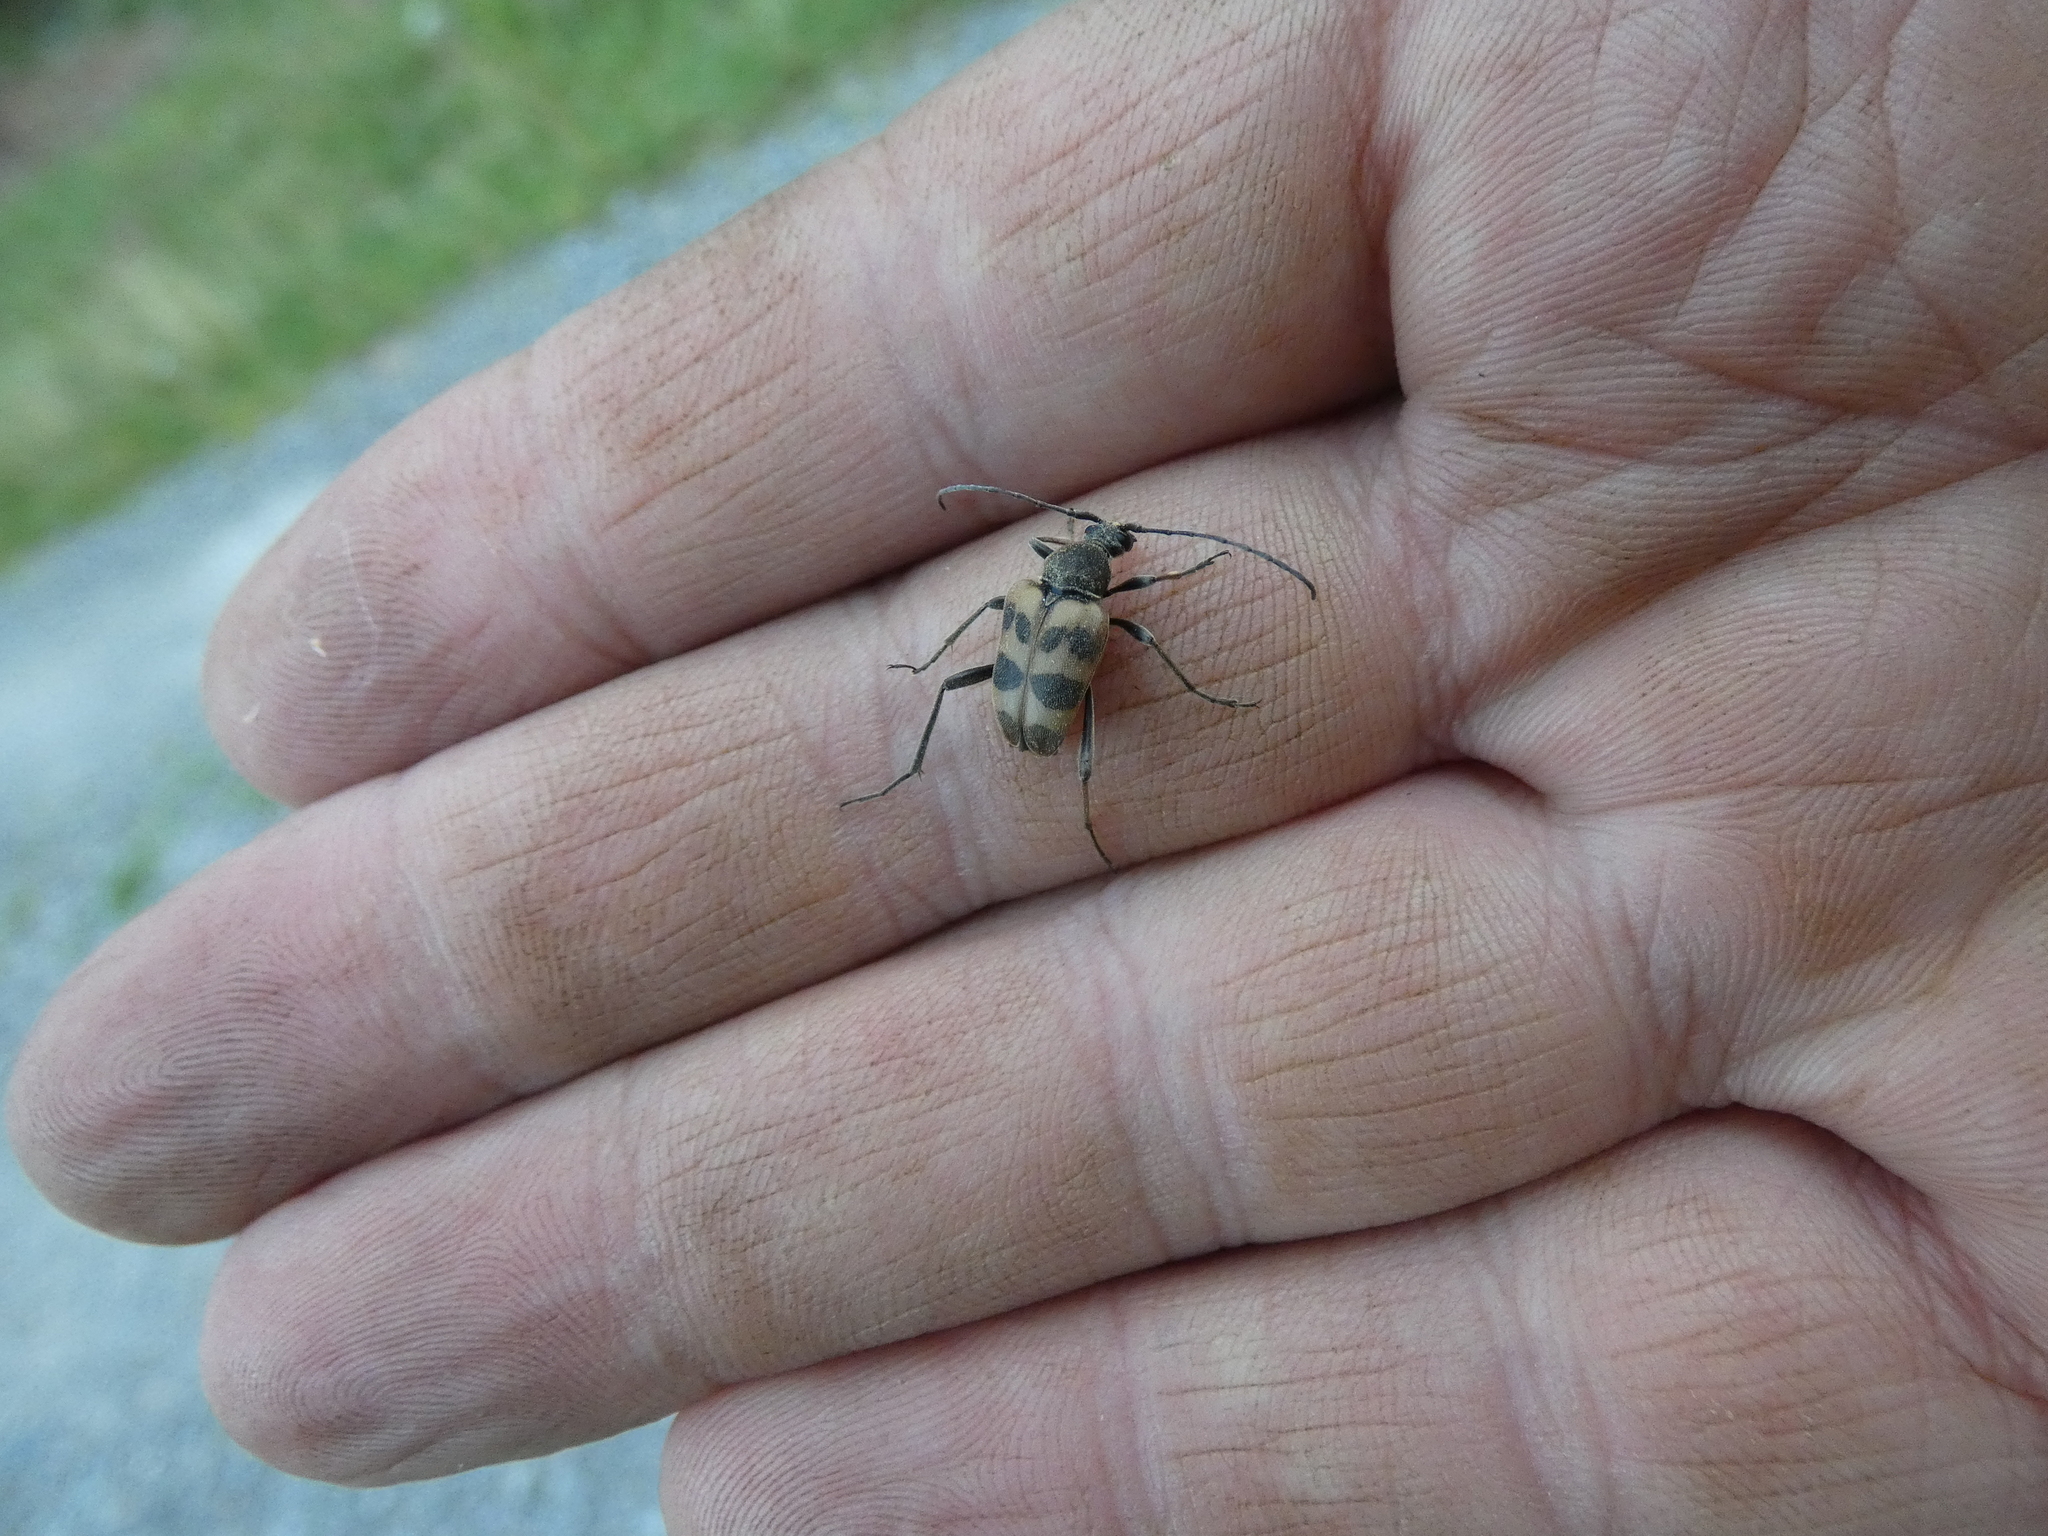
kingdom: Animalia
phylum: Arthropoda
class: Insecta
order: Coleoptera
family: Cerambycidae
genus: Pachytodes
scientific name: Pachytodes cerambyciformis
